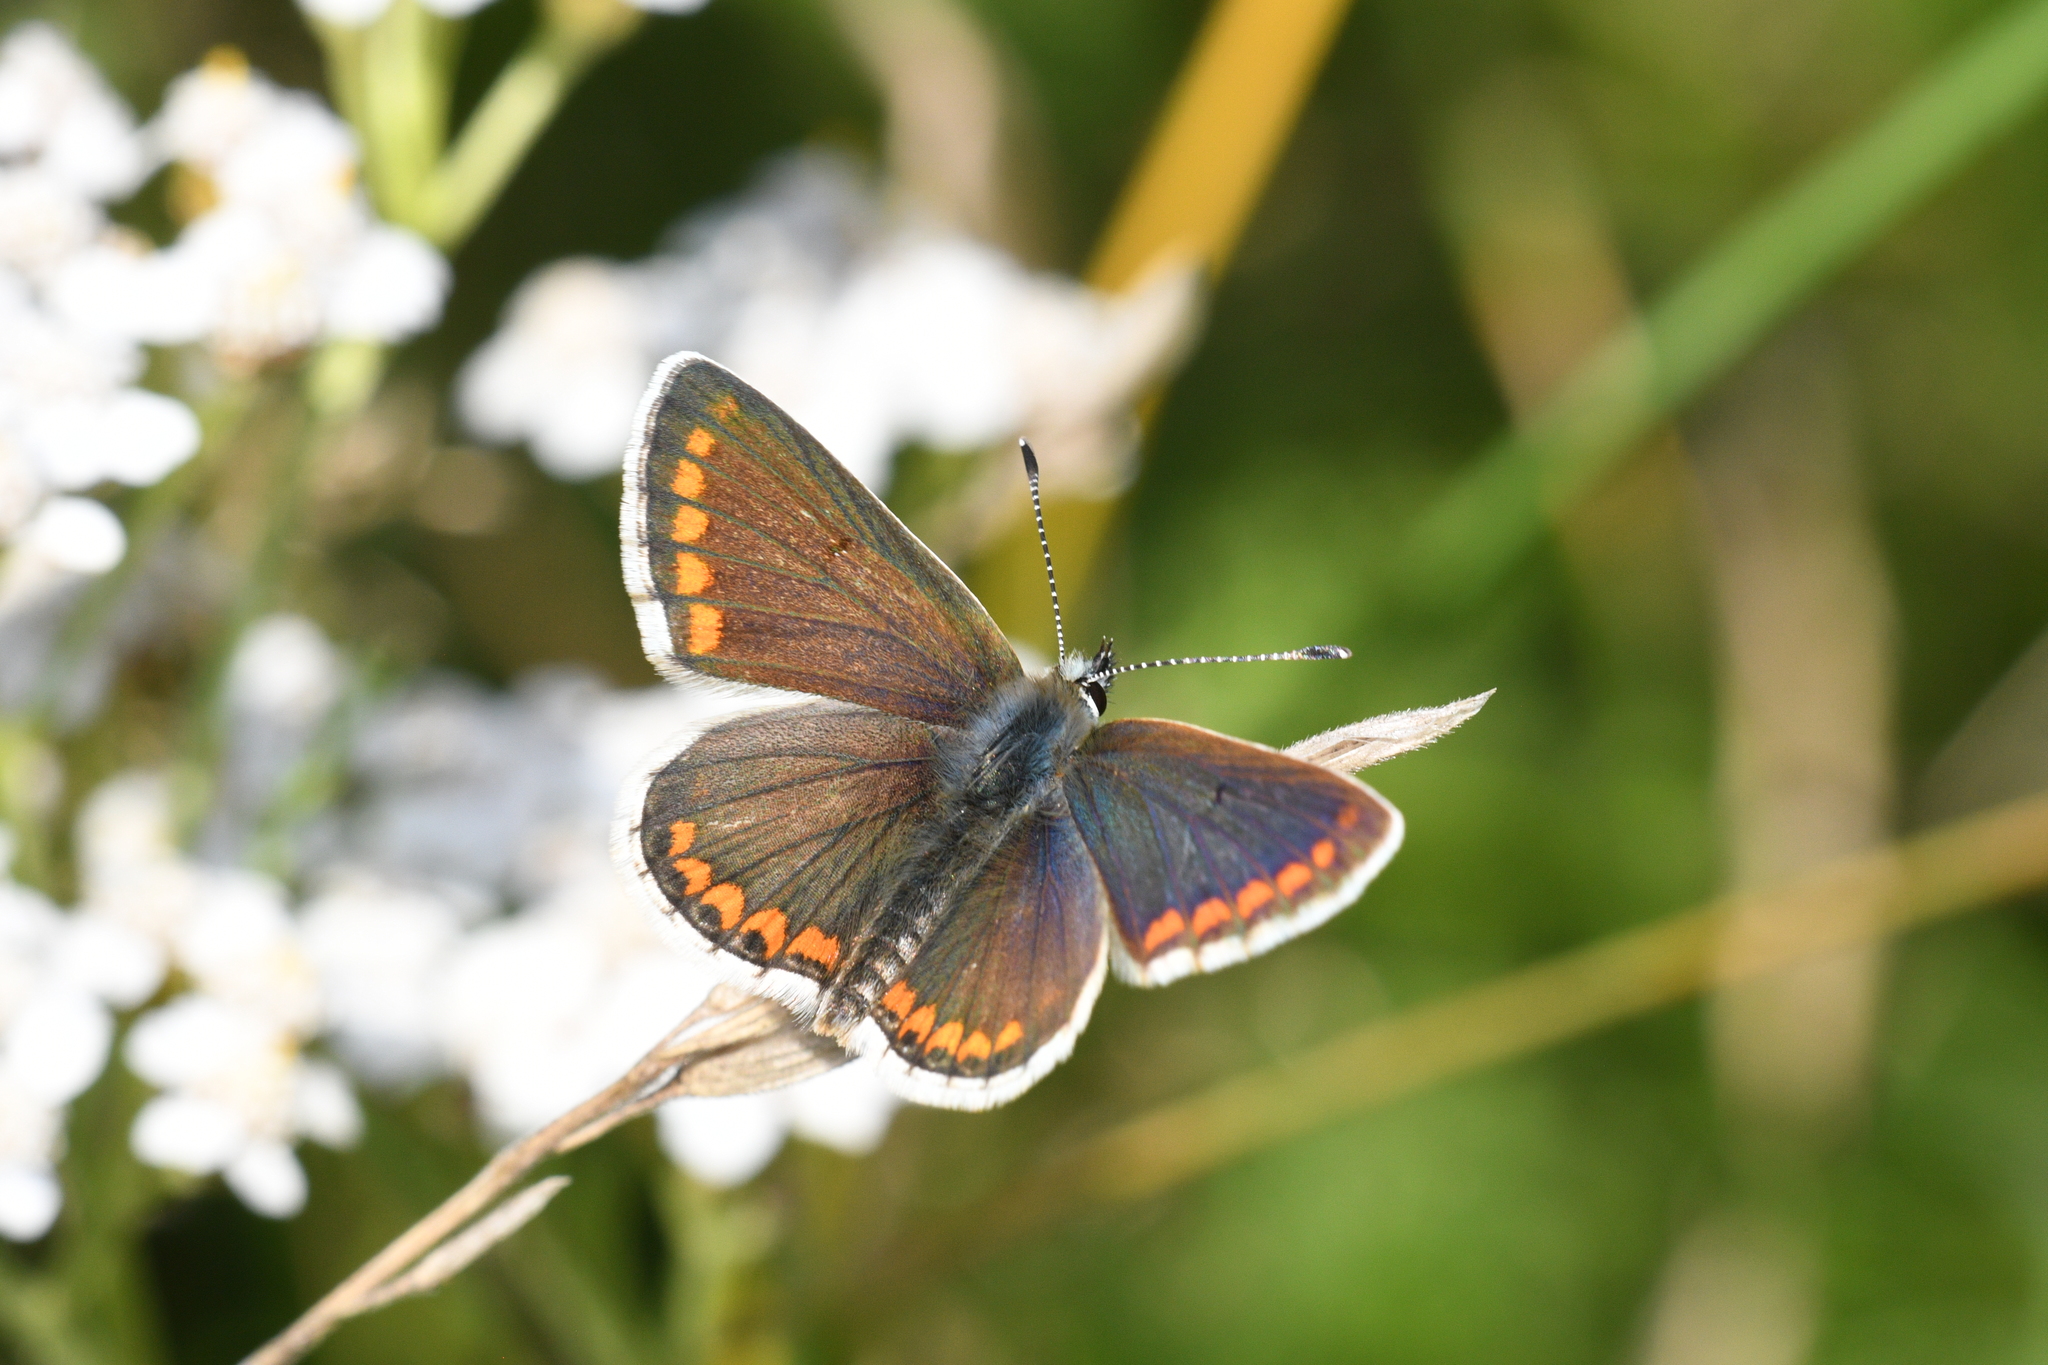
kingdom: Animalia
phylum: Arthropoda
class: Insecta
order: Lepidoptera
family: Lycaenidae
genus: Aricia
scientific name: Aricia agestis
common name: Brown argus
